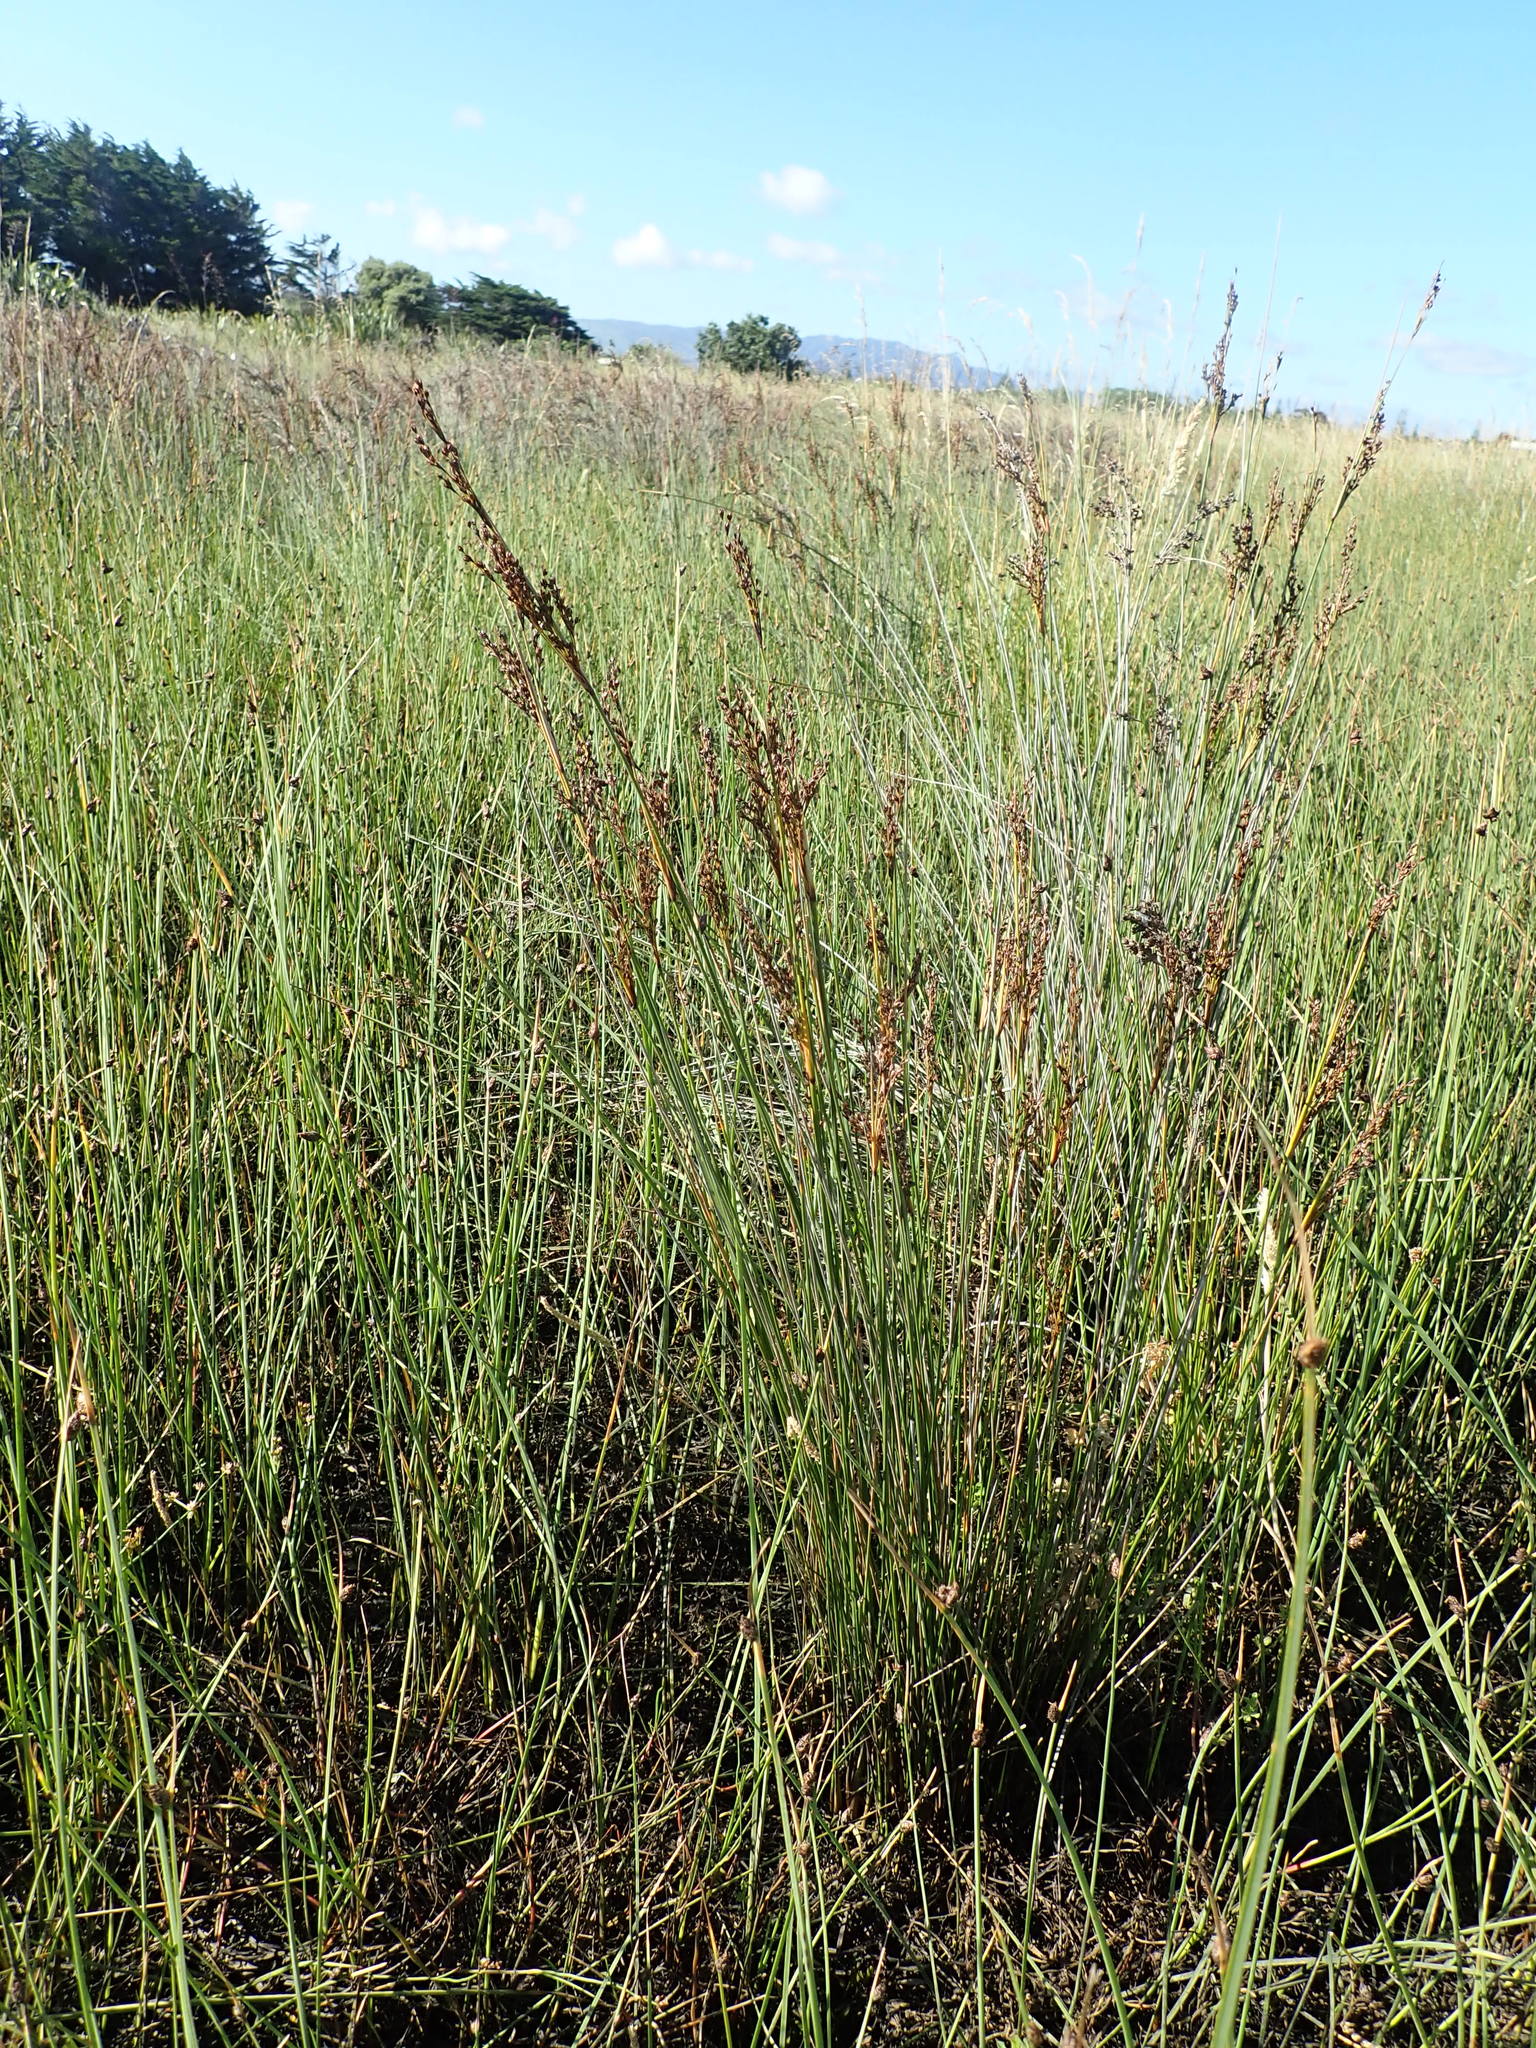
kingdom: Plantae
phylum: Tracheophyta
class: Liliopsida
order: Poales
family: Juncaceae
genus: Juncus
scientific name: Juncus kraussii
